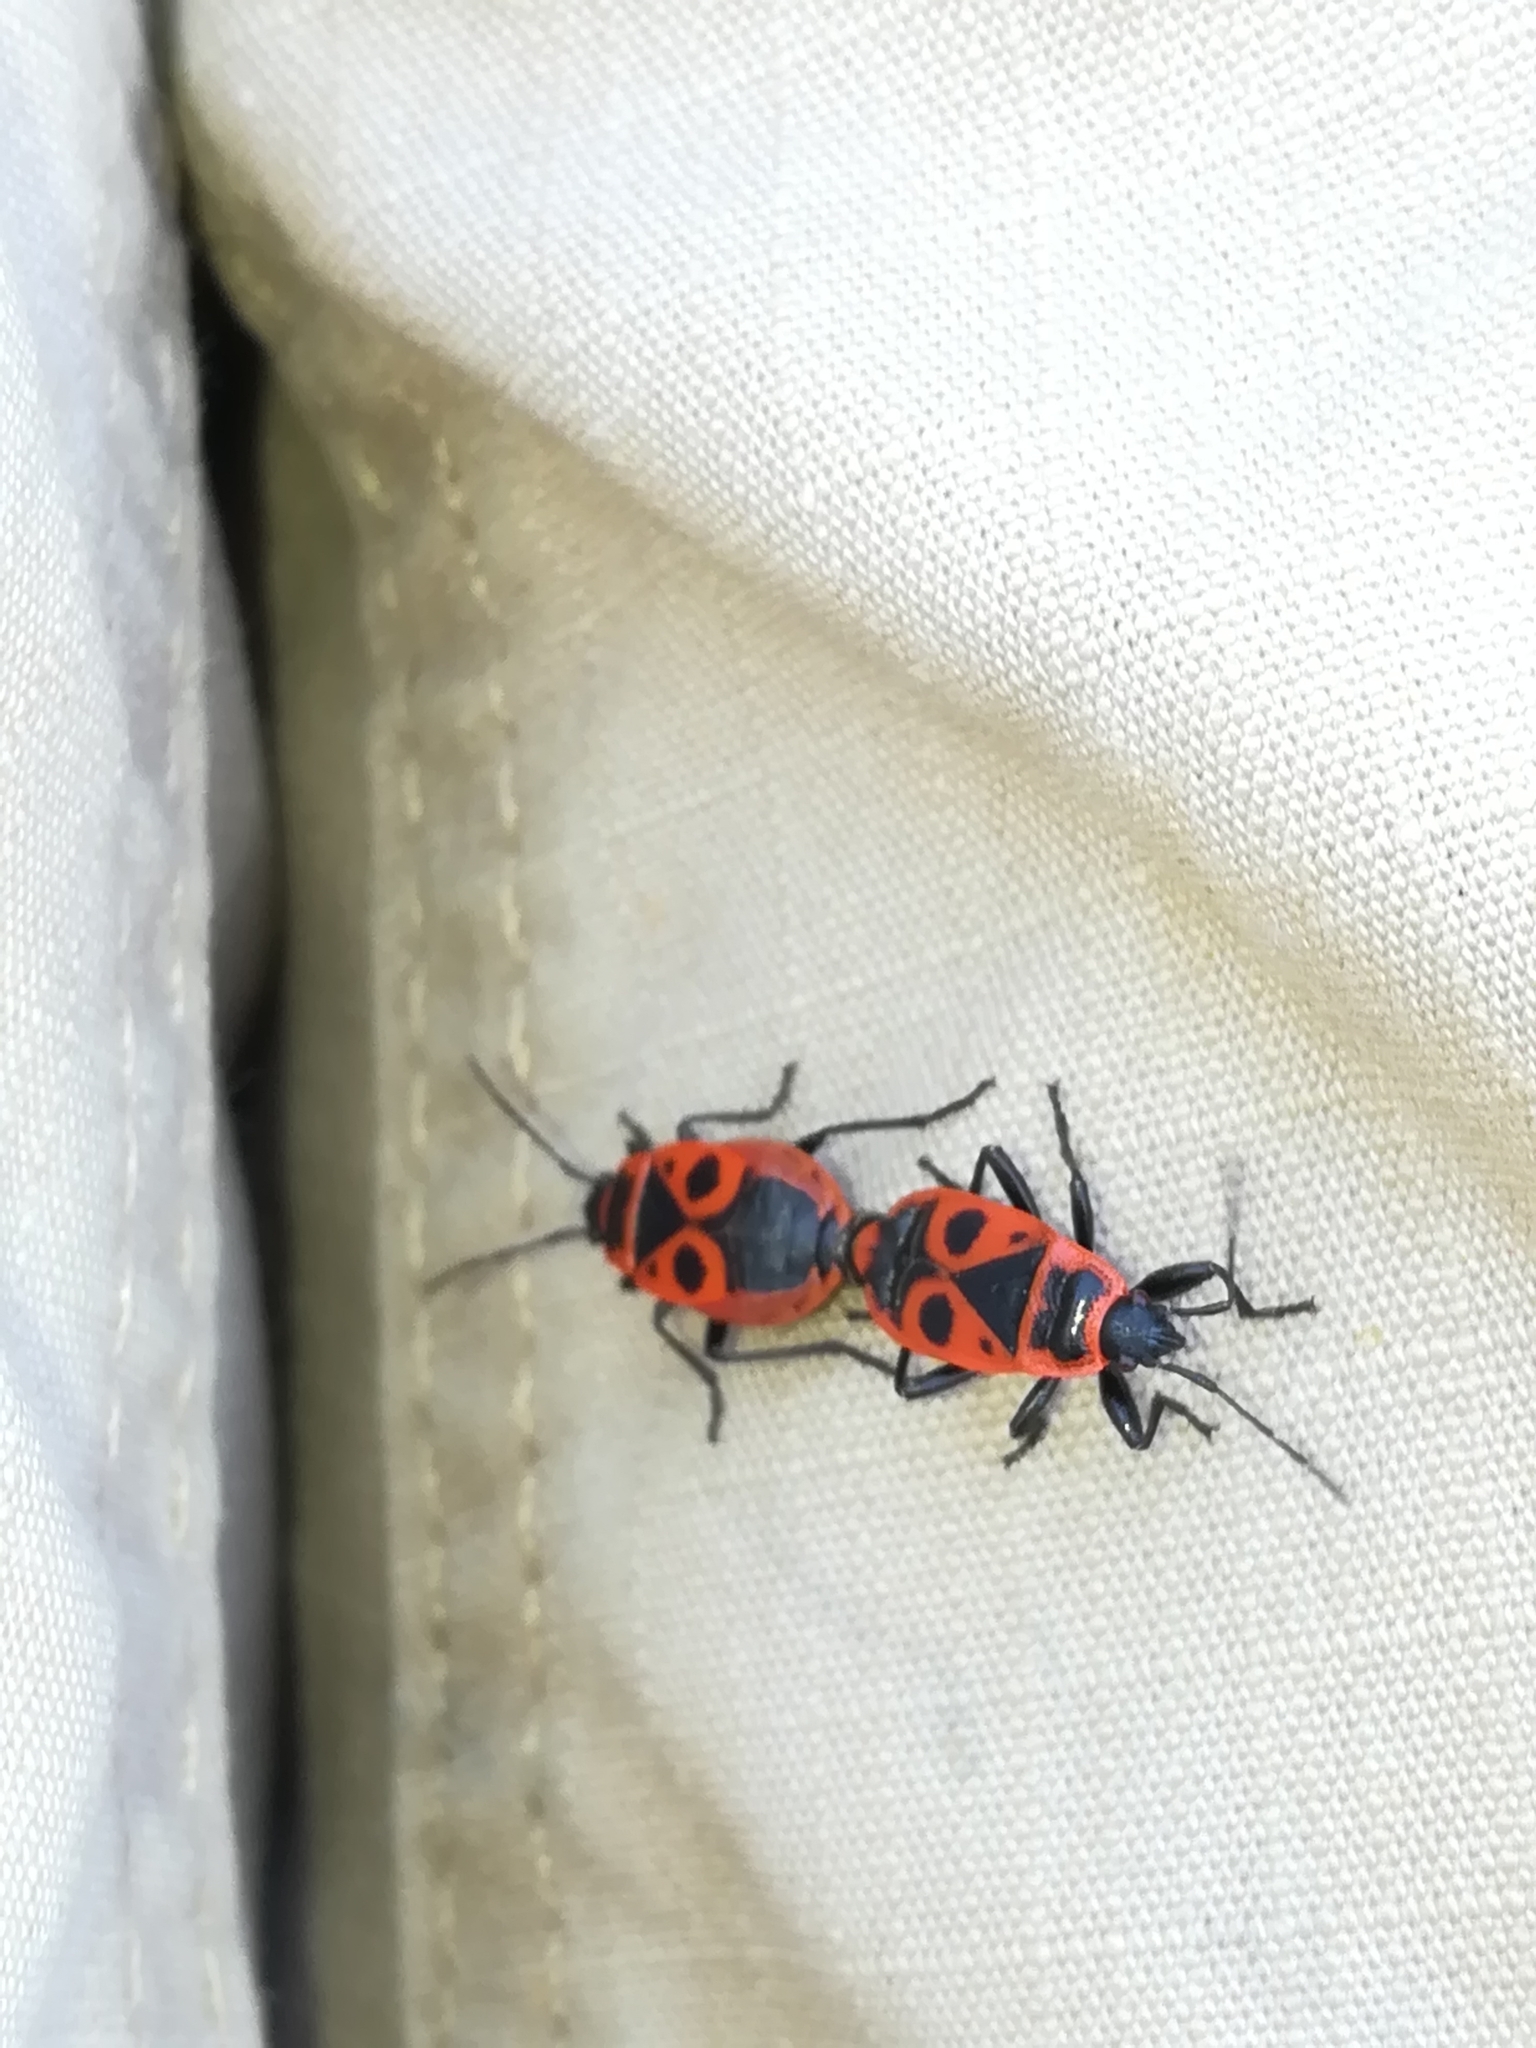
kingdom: Animalia
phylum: Arthropoda
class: Insecta
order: Hemiptera
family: Pyrrhocoridae
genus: Pyrrhocoris
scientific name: Pyrrhocoris apterus
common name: Firebug
